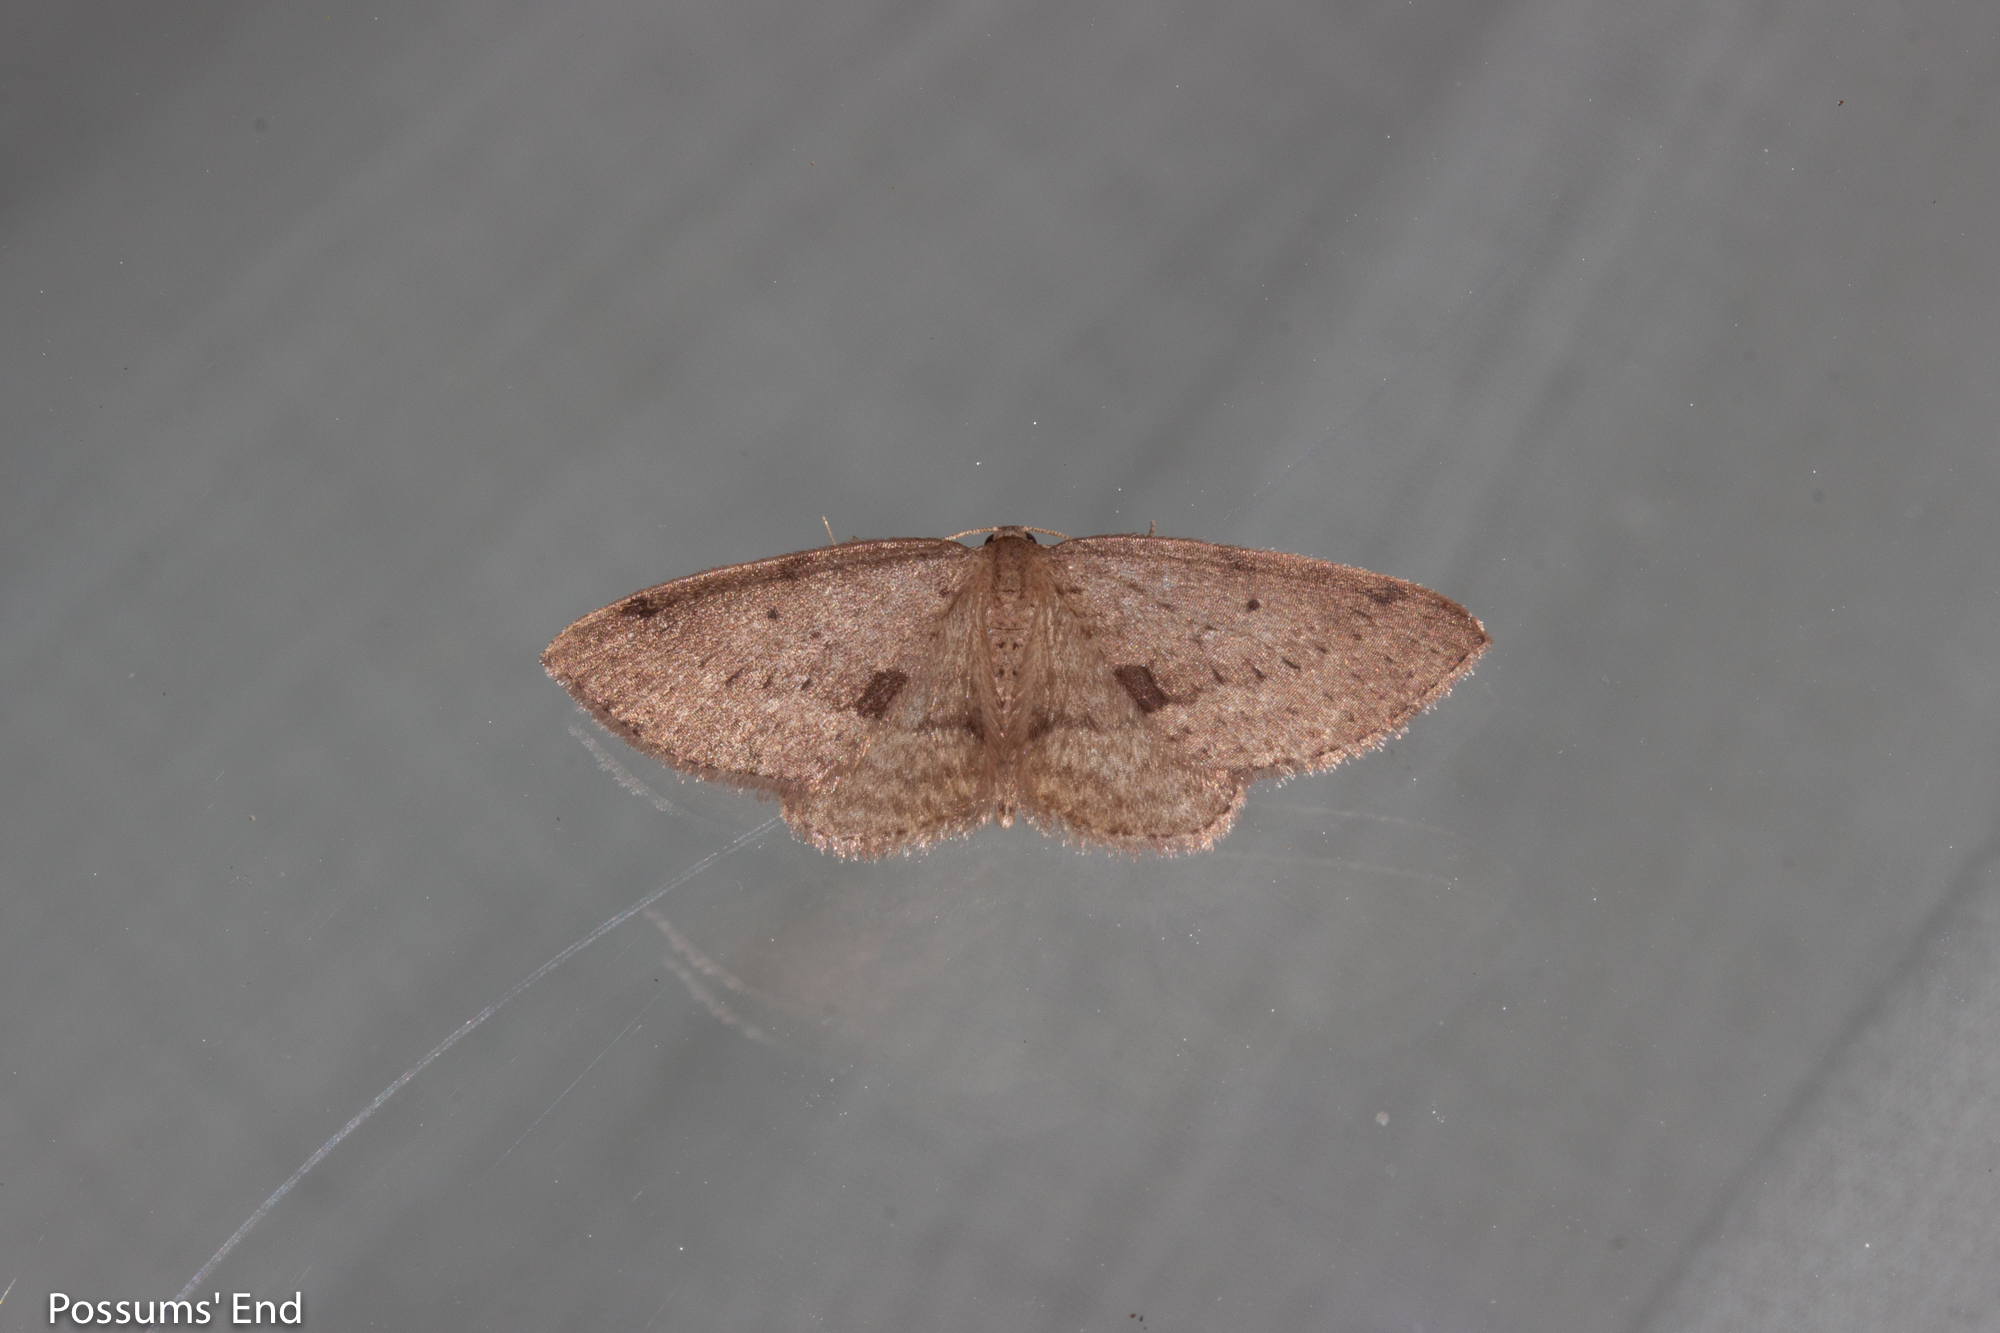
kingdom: Animalia
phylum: Arthropoda
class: Insecta
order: Lepidoptera
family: Geometridae
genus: Poecilasthena
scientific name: Poecilasthena schistaria
